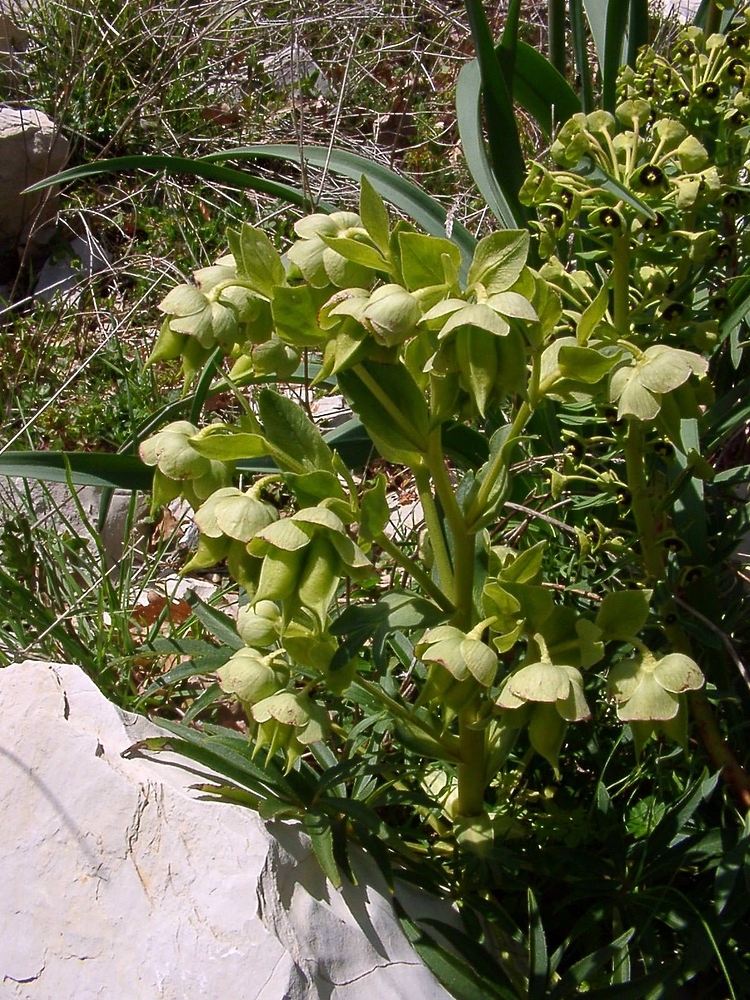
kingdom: Plantae
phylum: Tracheophyta
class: Magnoliopsida
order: Ranunculales
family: Ranunculaceae
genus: Helleborus
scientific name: Helleborus foetidus
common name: Stinking hellebore
